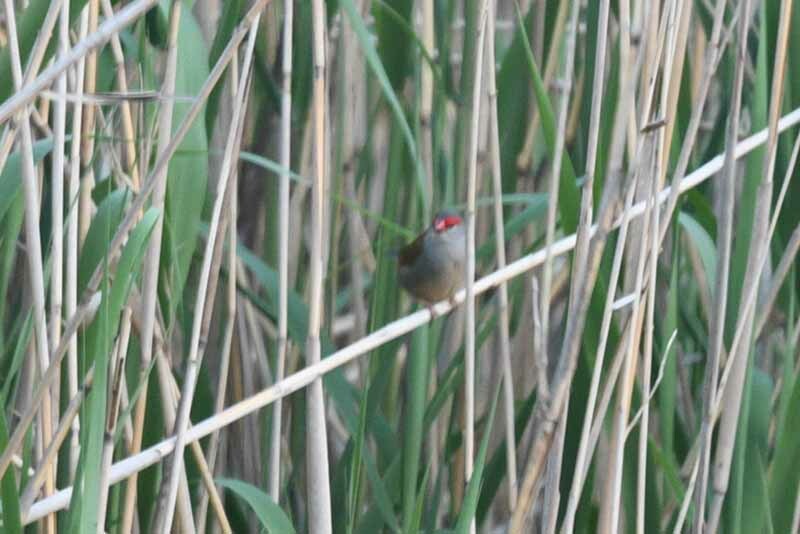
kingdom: Animalia
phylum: Chordata
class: Aves
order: Passeriformes
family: Estrildidae
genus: Neochmia
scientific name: Neochmia temporalis
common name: Red-browed finch
